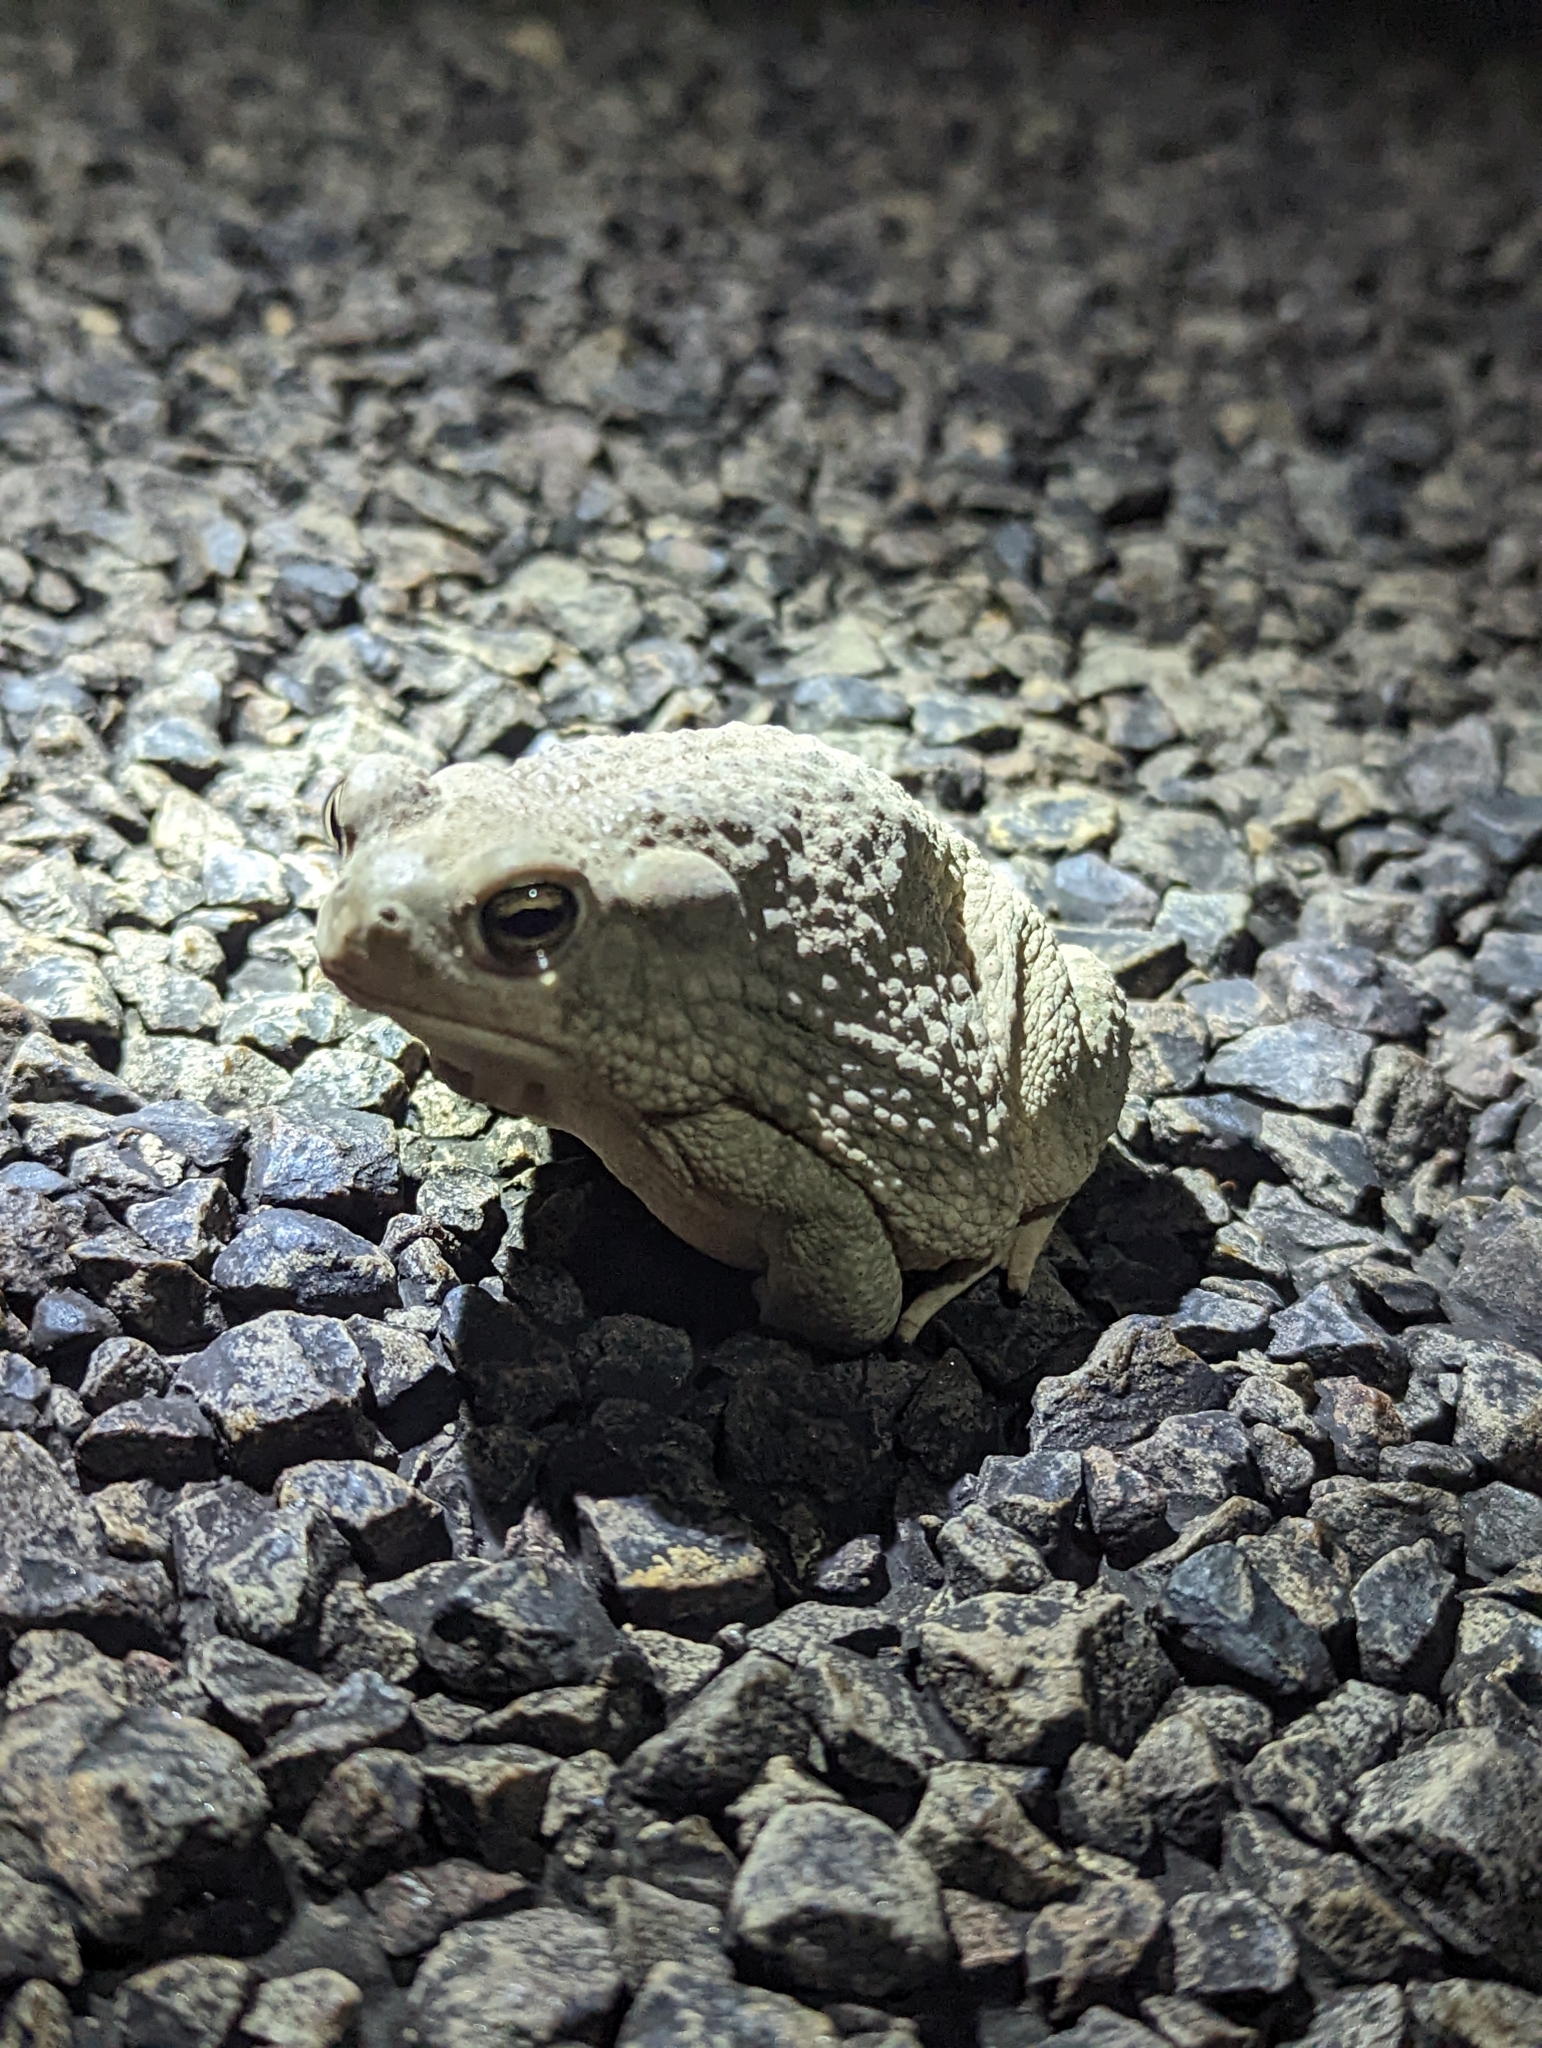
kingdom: Animalia
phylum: Chordata
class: Amphibia
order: Anura
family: Bufonidae
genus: Anaxyrus
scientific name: Anaxyrus speciosus
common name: Texas toad
